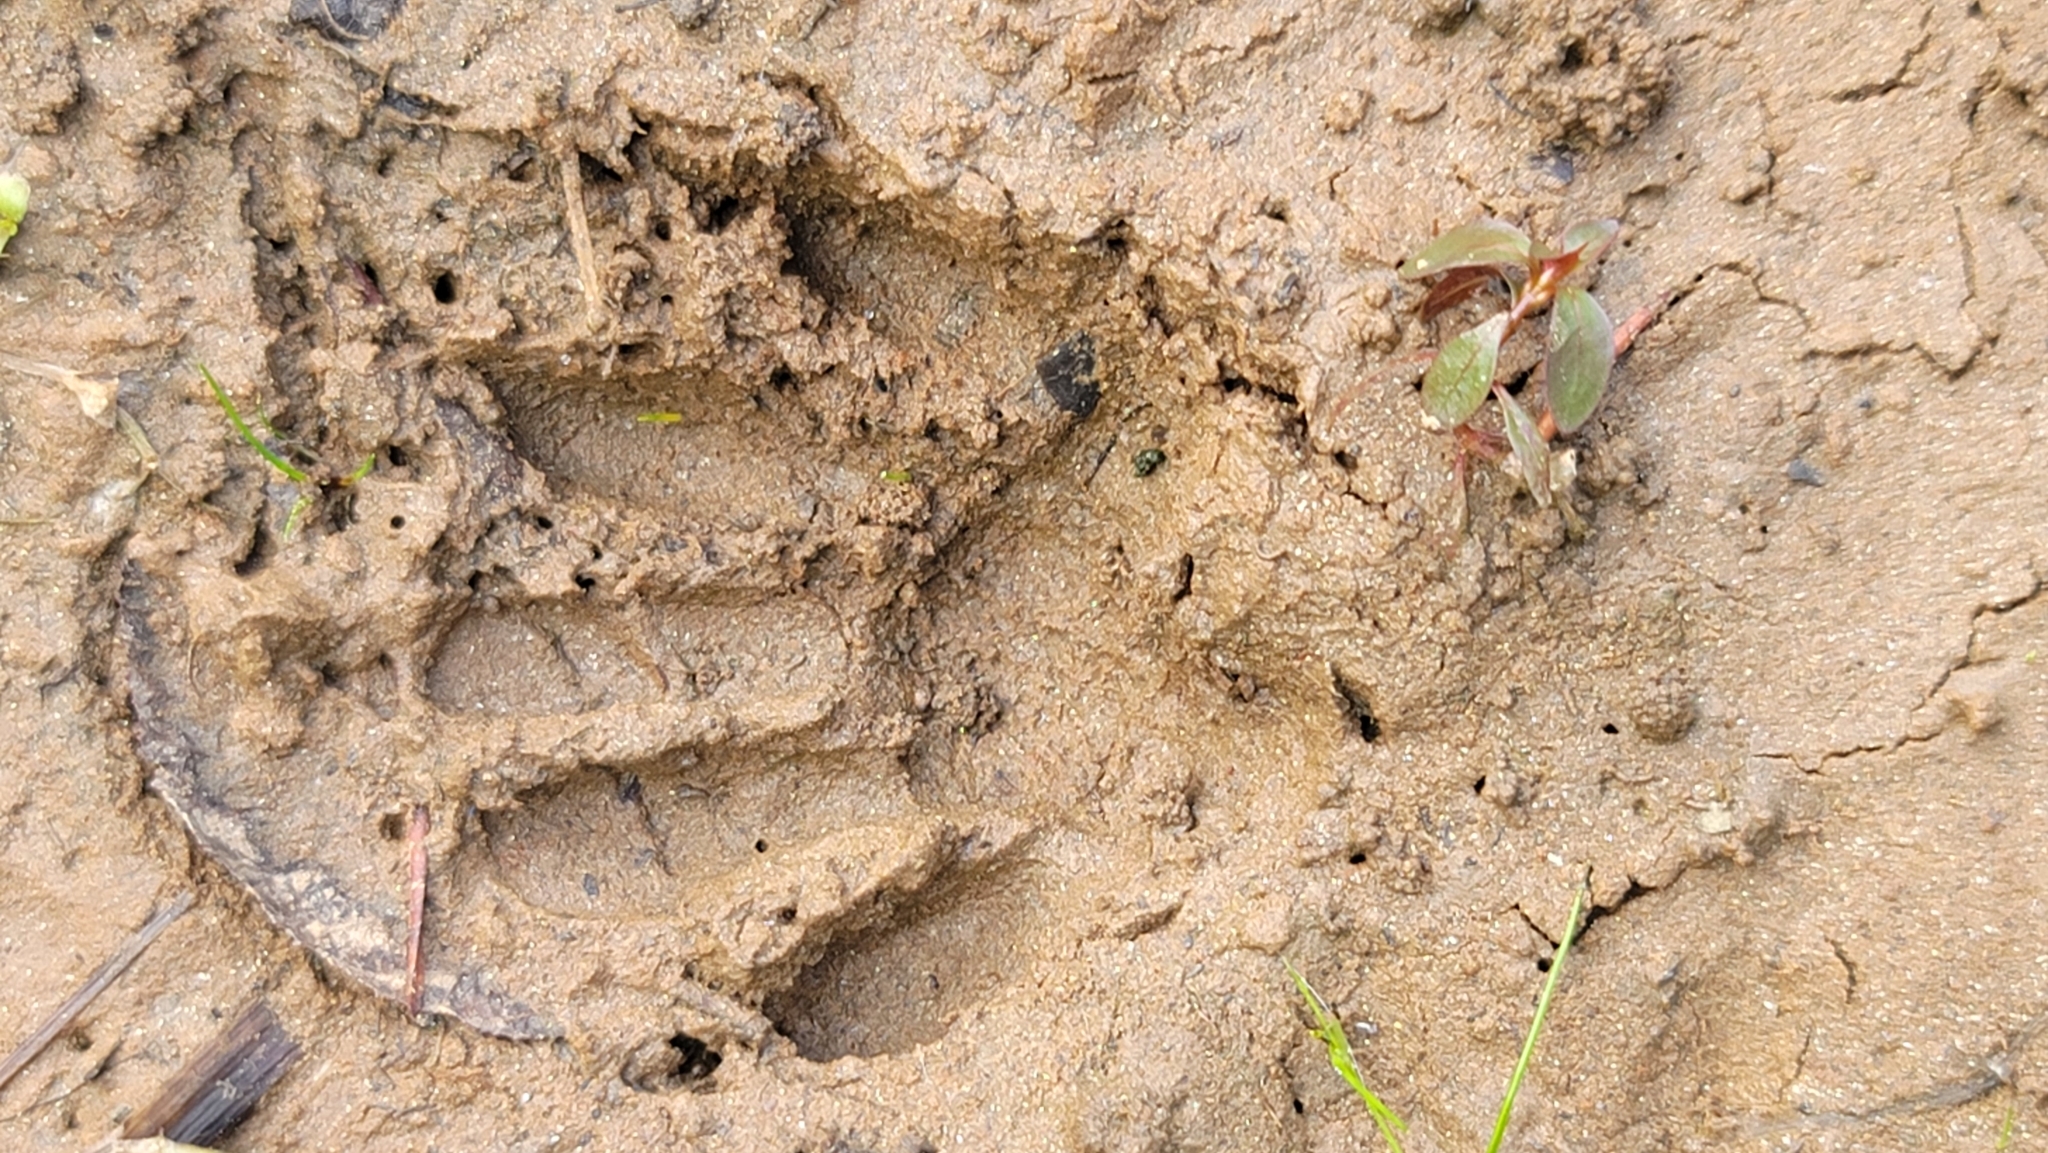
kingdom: Animalia
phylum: Chordata
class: Mammalia
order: Carnivora
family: Procyonidae
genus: Procyon
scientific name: Procyon lotor
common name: Raccoon
